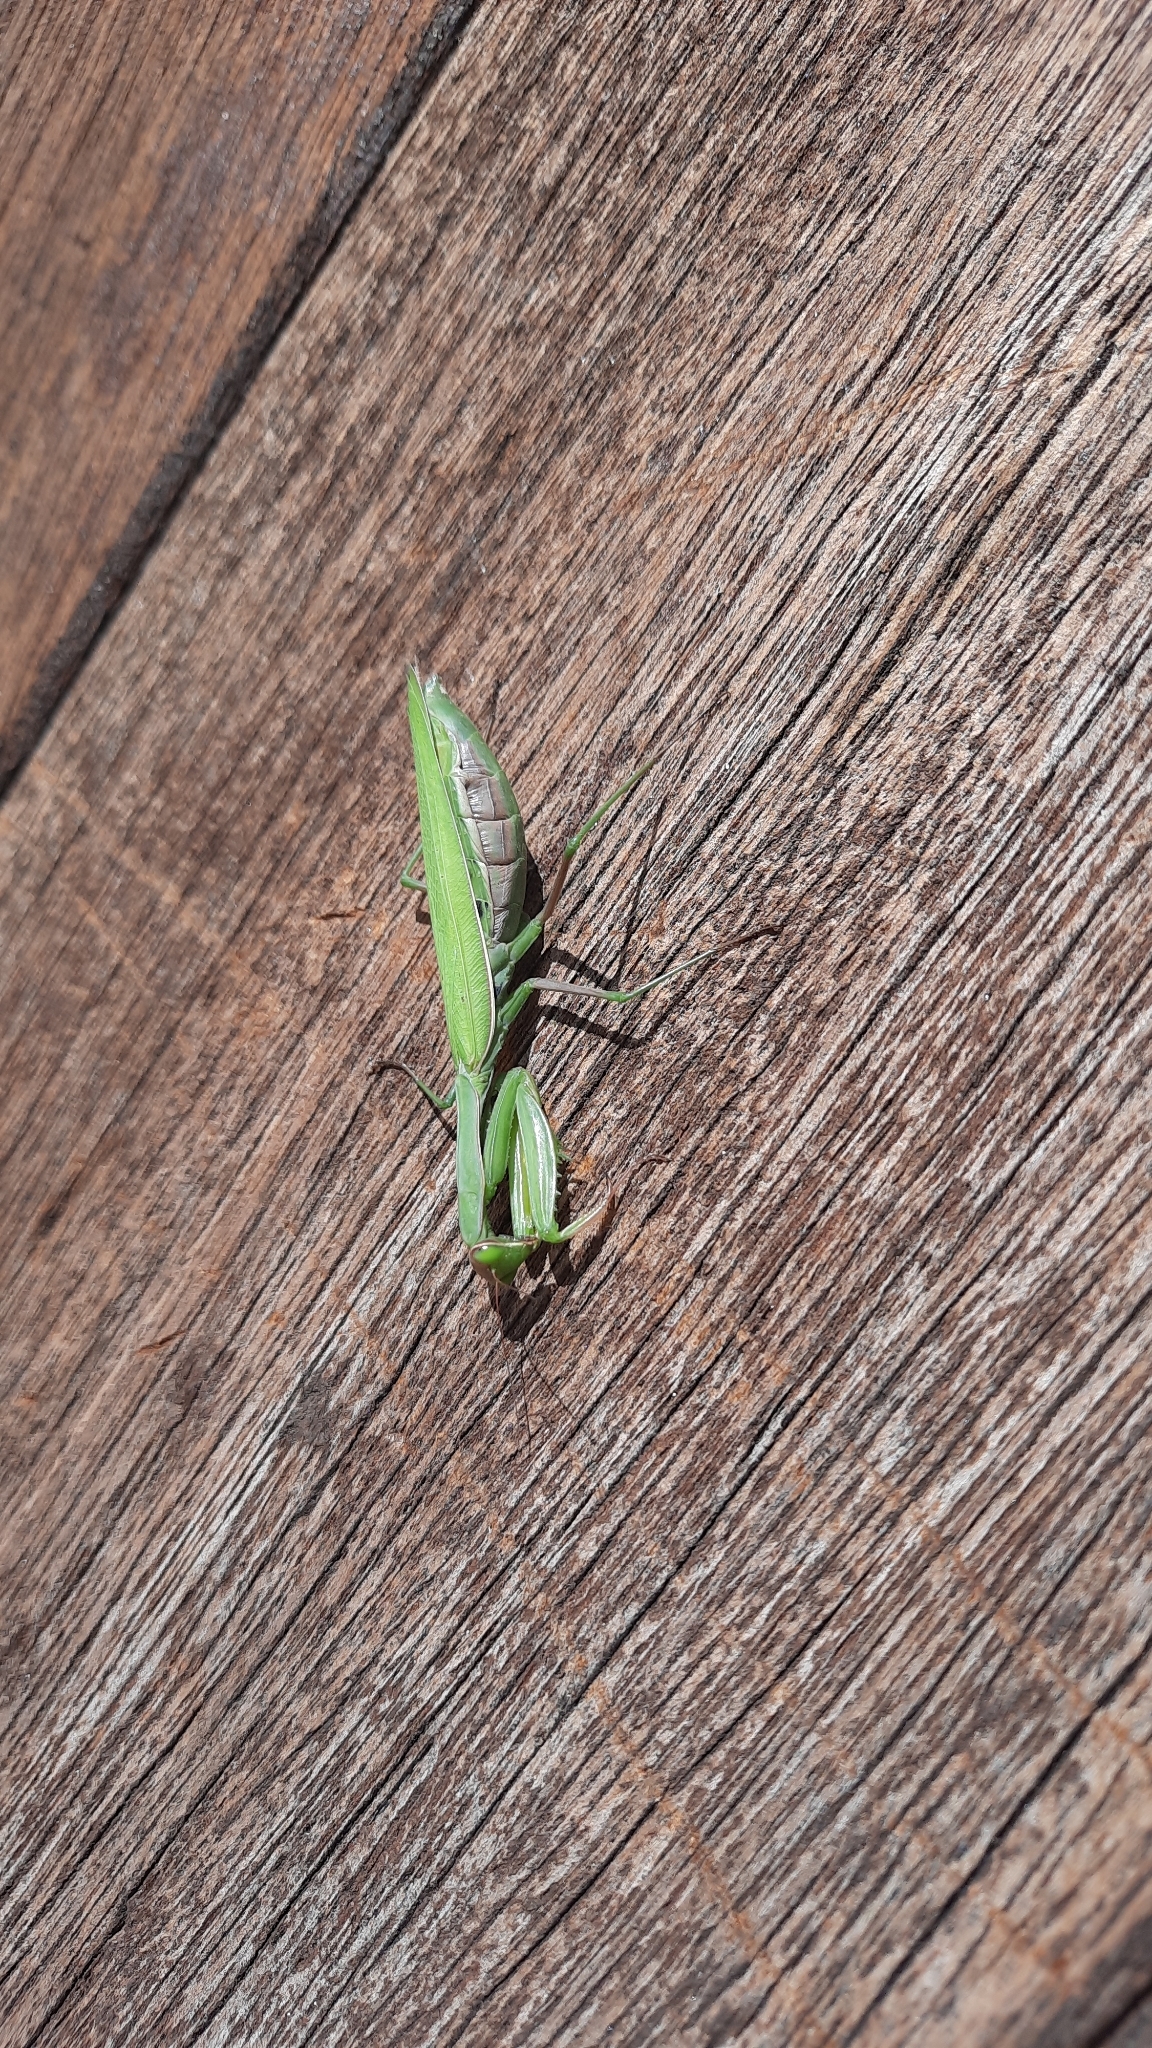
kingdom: Animalia
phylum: Arthropoda
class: Insecta
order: Mantodea
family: Mantidae
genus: Mantis
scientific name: Mantis religiosa
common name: Praying mantis
